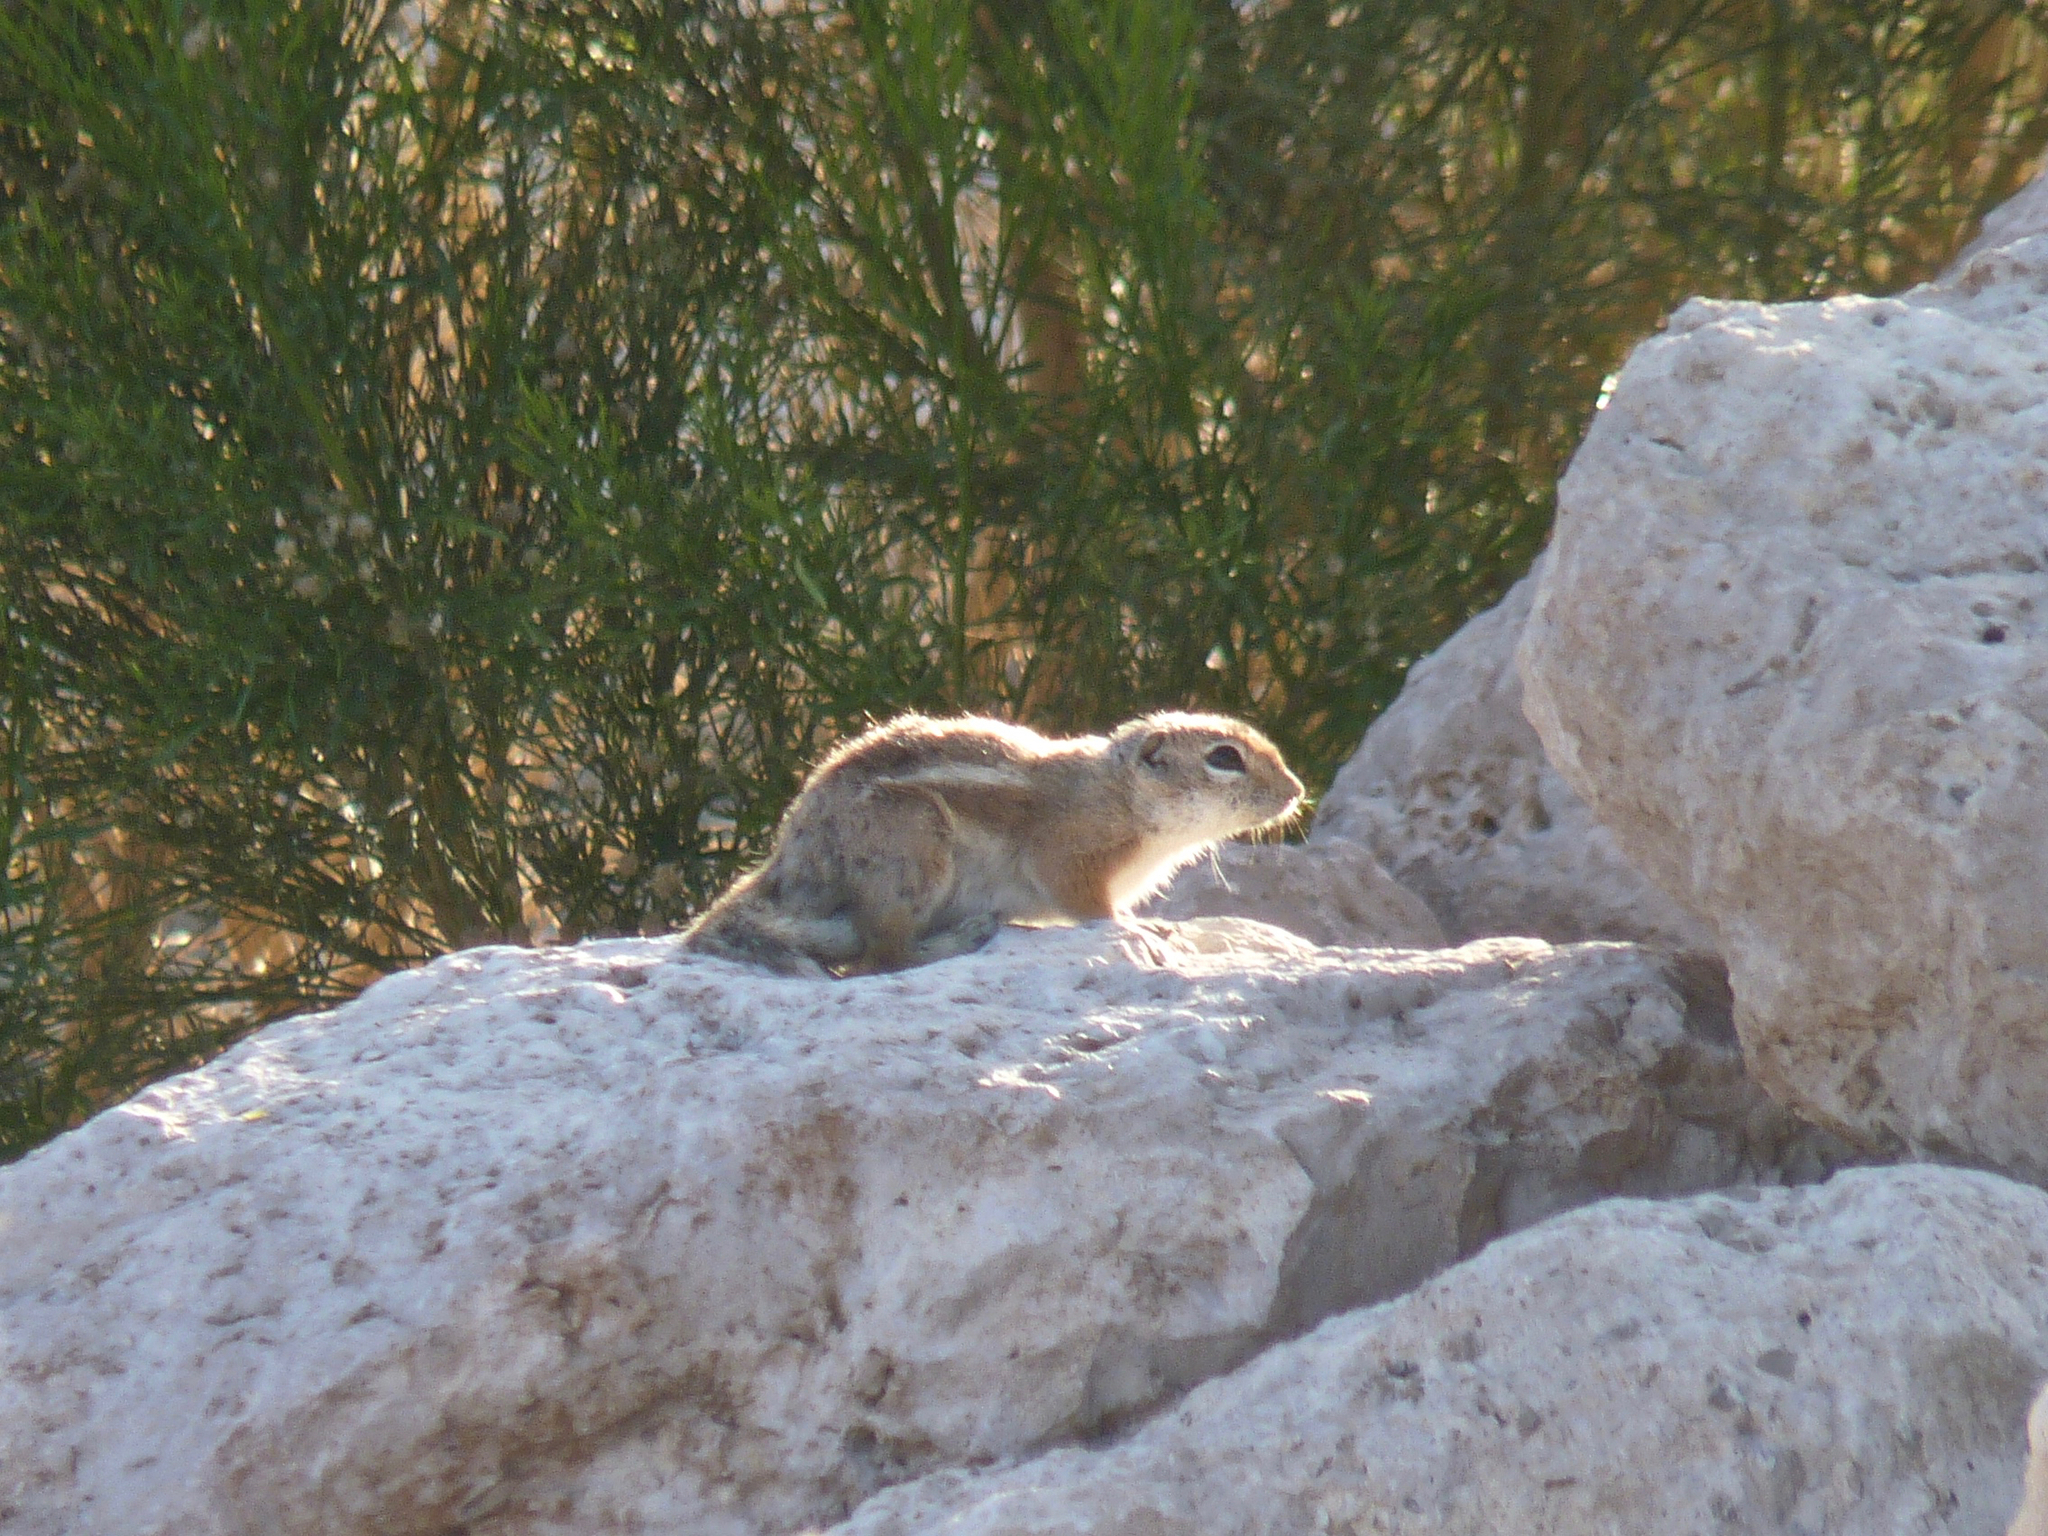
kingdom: Animalia
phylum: Chordata
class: Mammalia
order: Rodentia
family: Sciuridae
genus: Ammospermophilus
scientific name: Ammospermophilus leucurus
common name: White-tailed antelope squirrel
